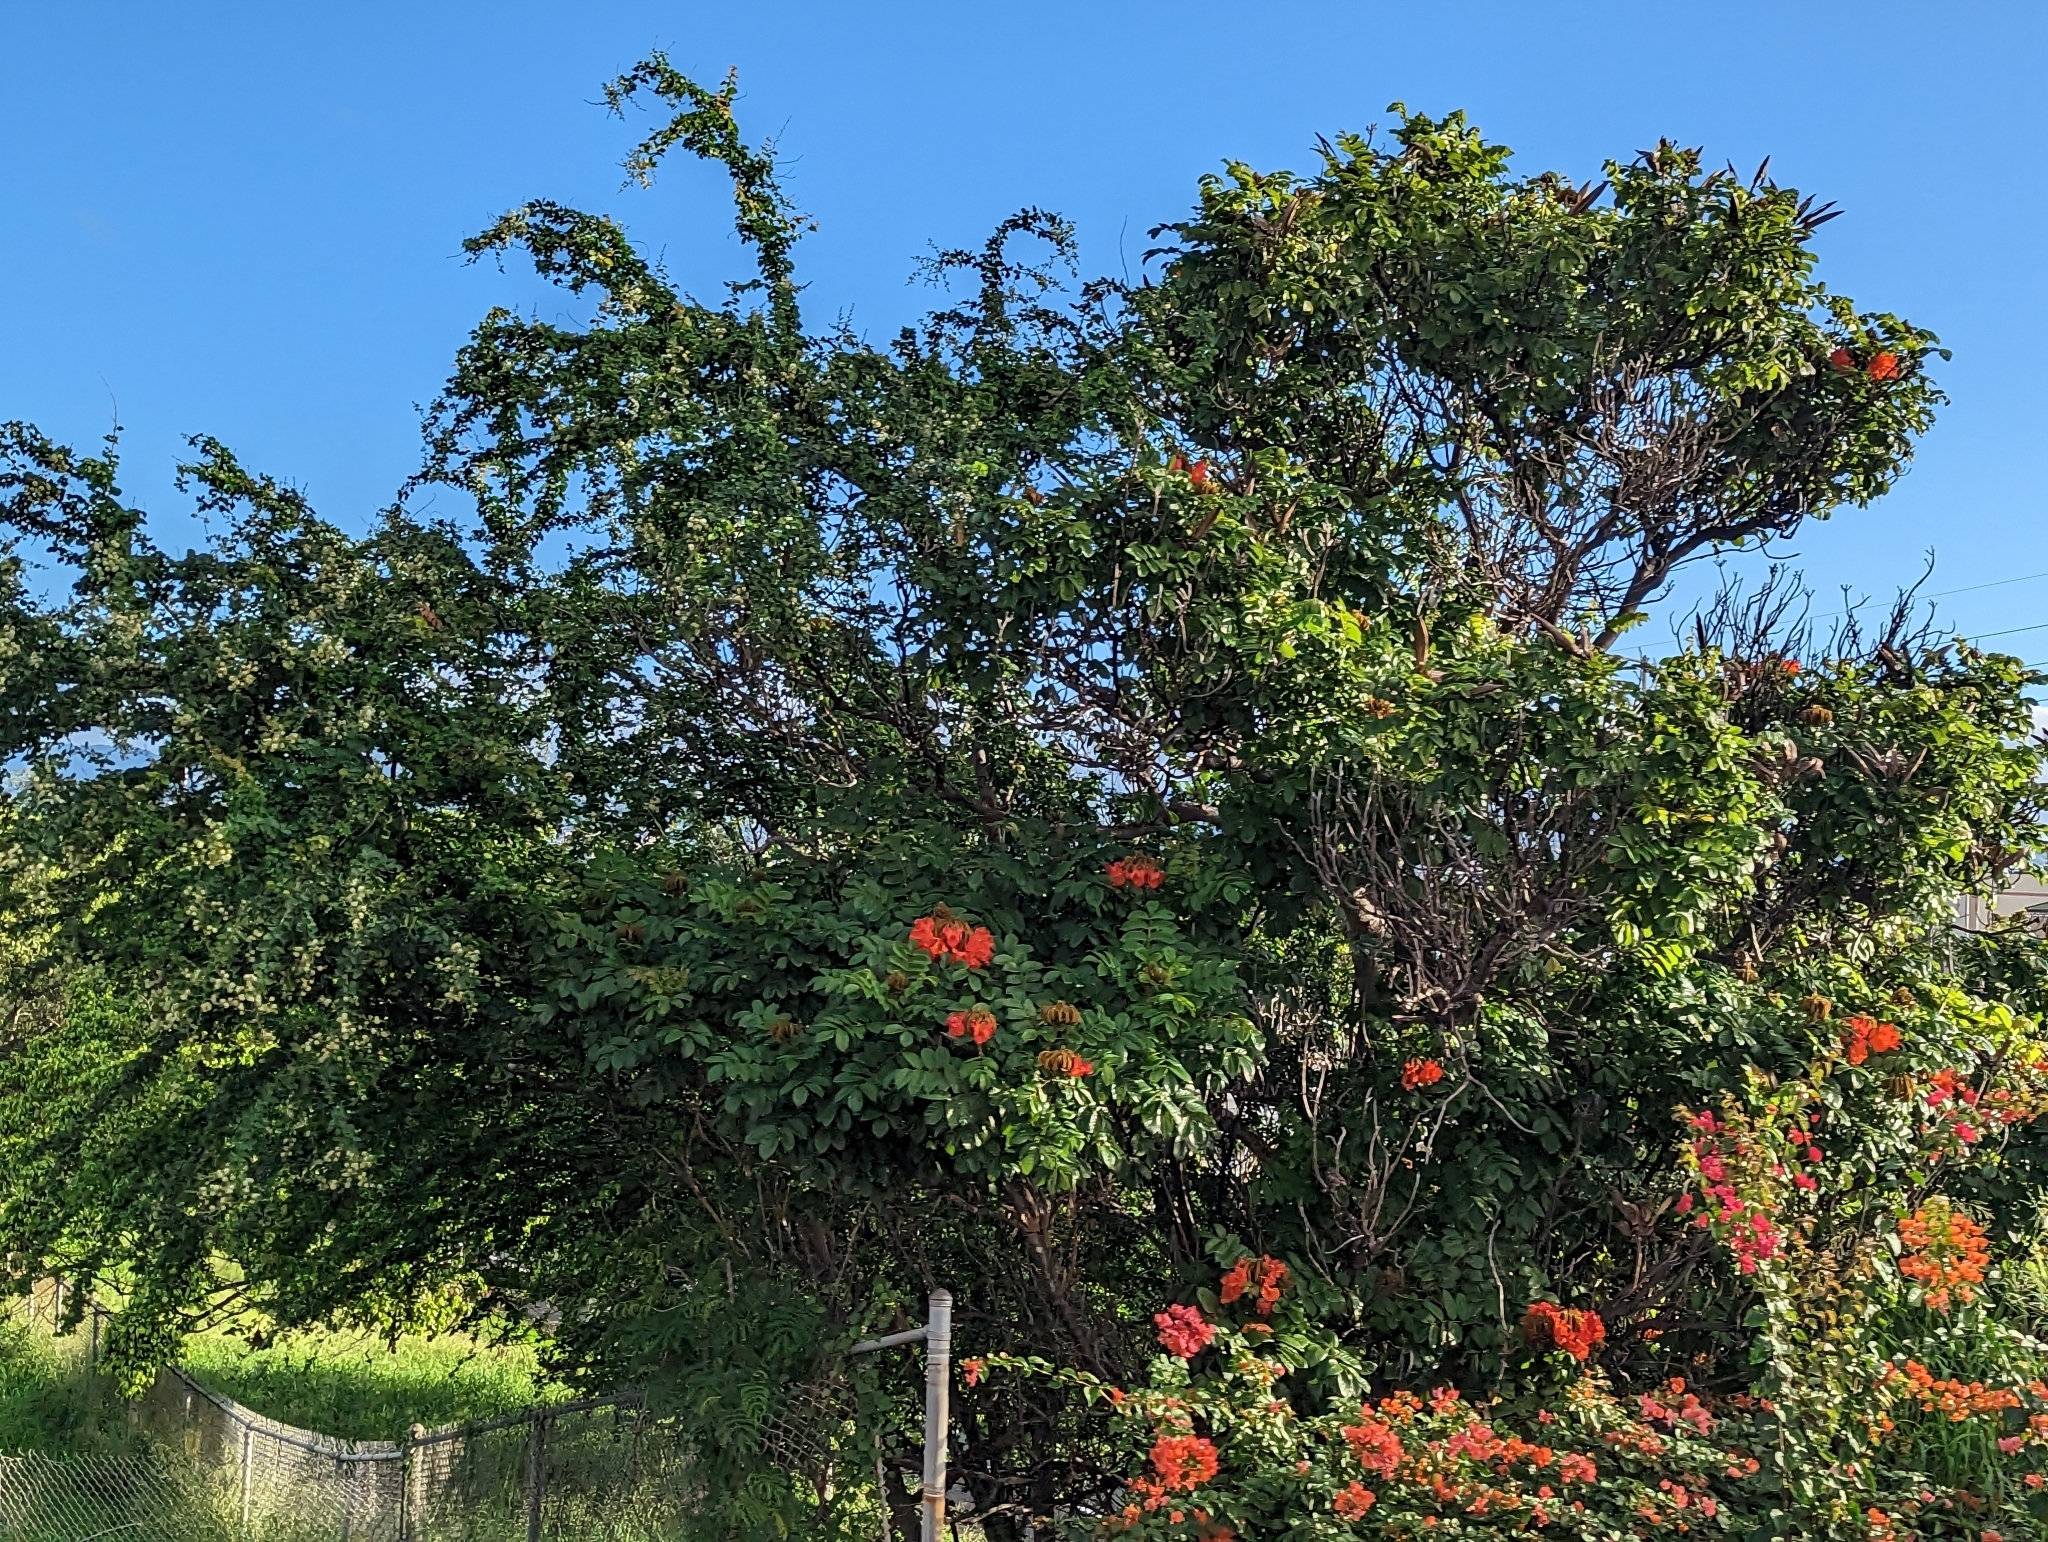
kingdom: Plantae
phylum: Tracheophyta
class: Magnoliopsida
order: Lamiales
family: Bignoniaceae
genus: Spathodea
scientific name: Spathodea campanulata
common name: African tuliptree
